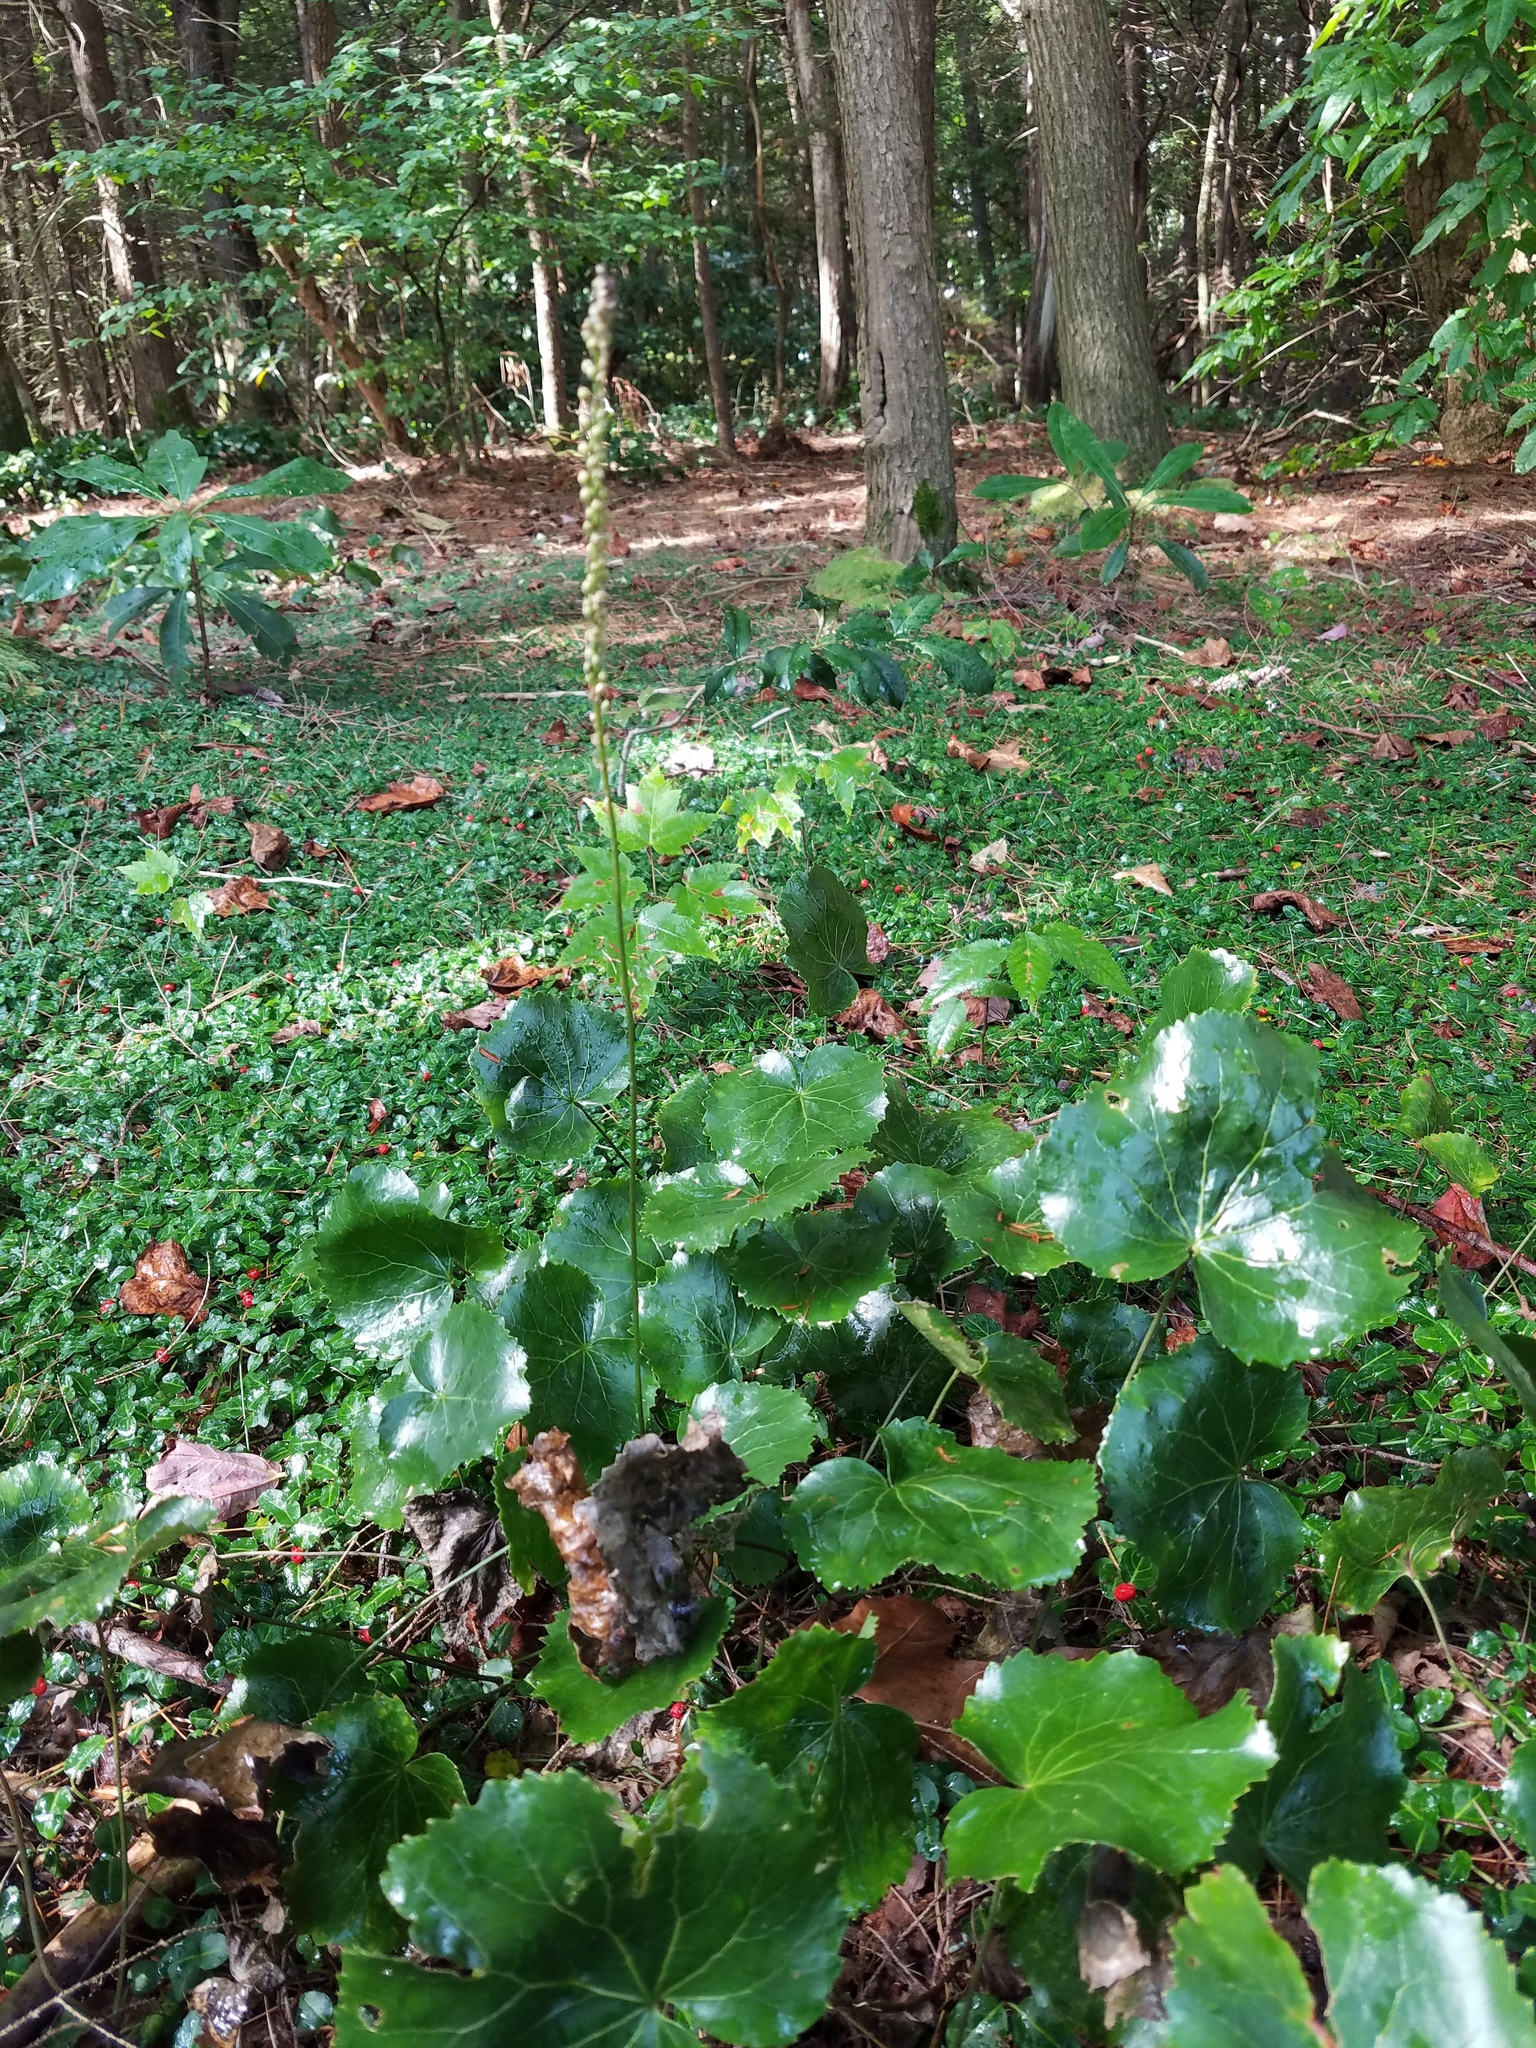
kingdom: Plantae
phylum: Tracheophyta
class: Magnoliopsida
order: Ericales
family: Diapensiaceae
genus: Galax
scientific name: Galax urceolata
